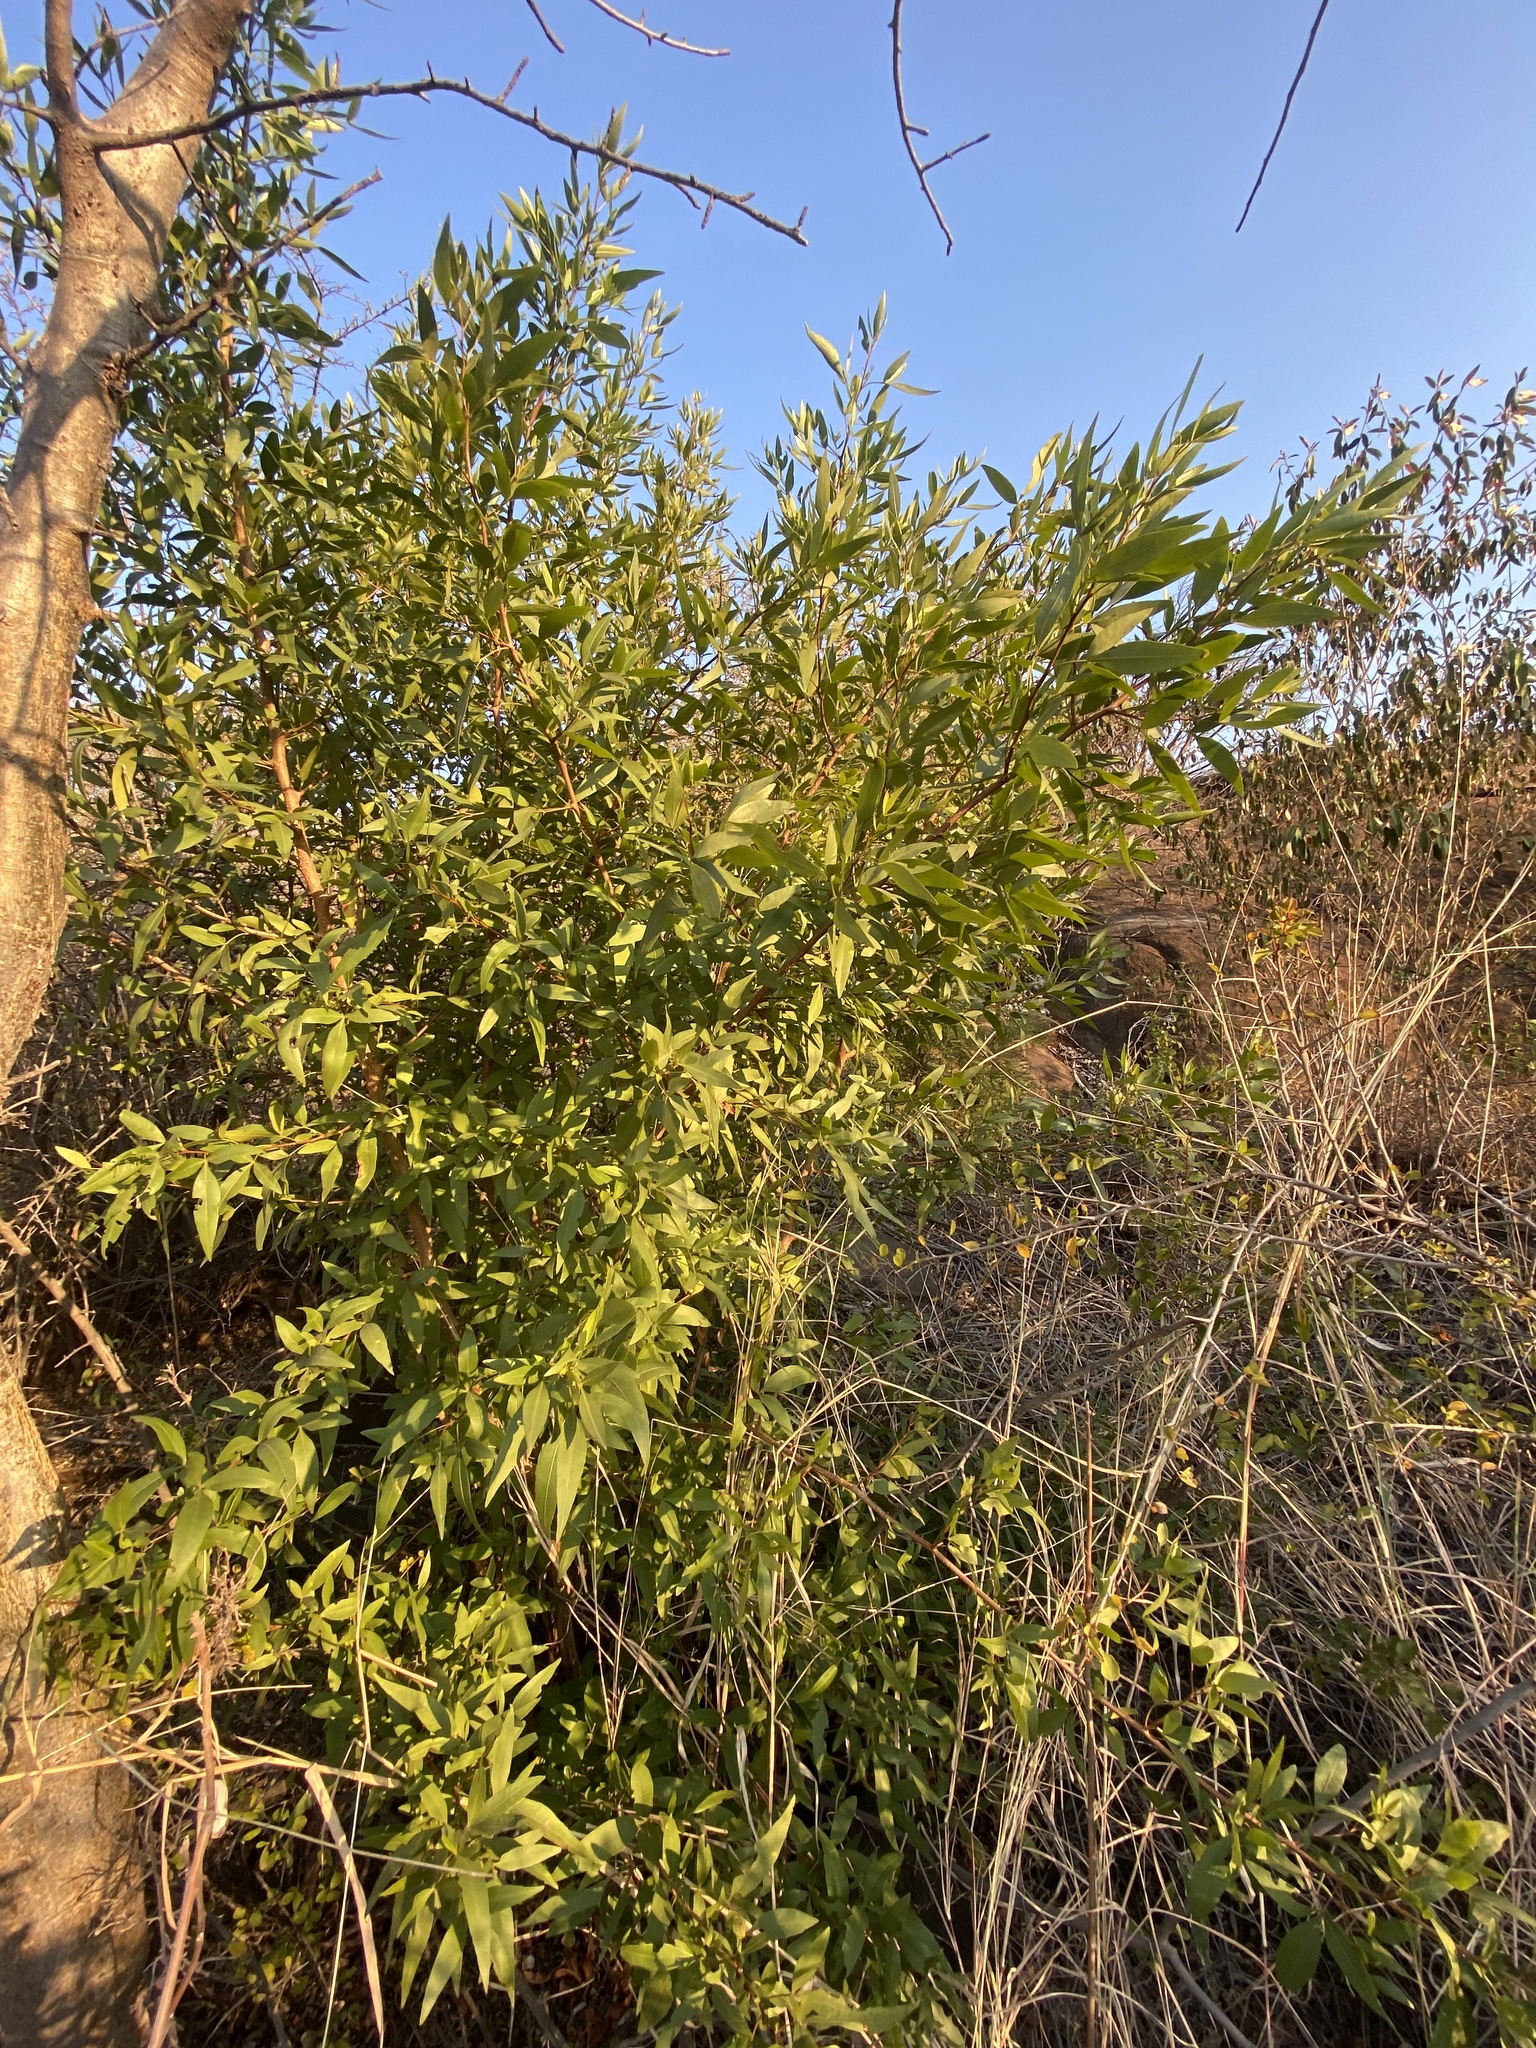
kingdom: Plantae
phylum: Tracheophyta
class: Magnoliopsida
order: Sapindales
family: Anacardiaceae
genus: Searsia
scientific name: Searsia leptodictya
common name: Mountain karee
